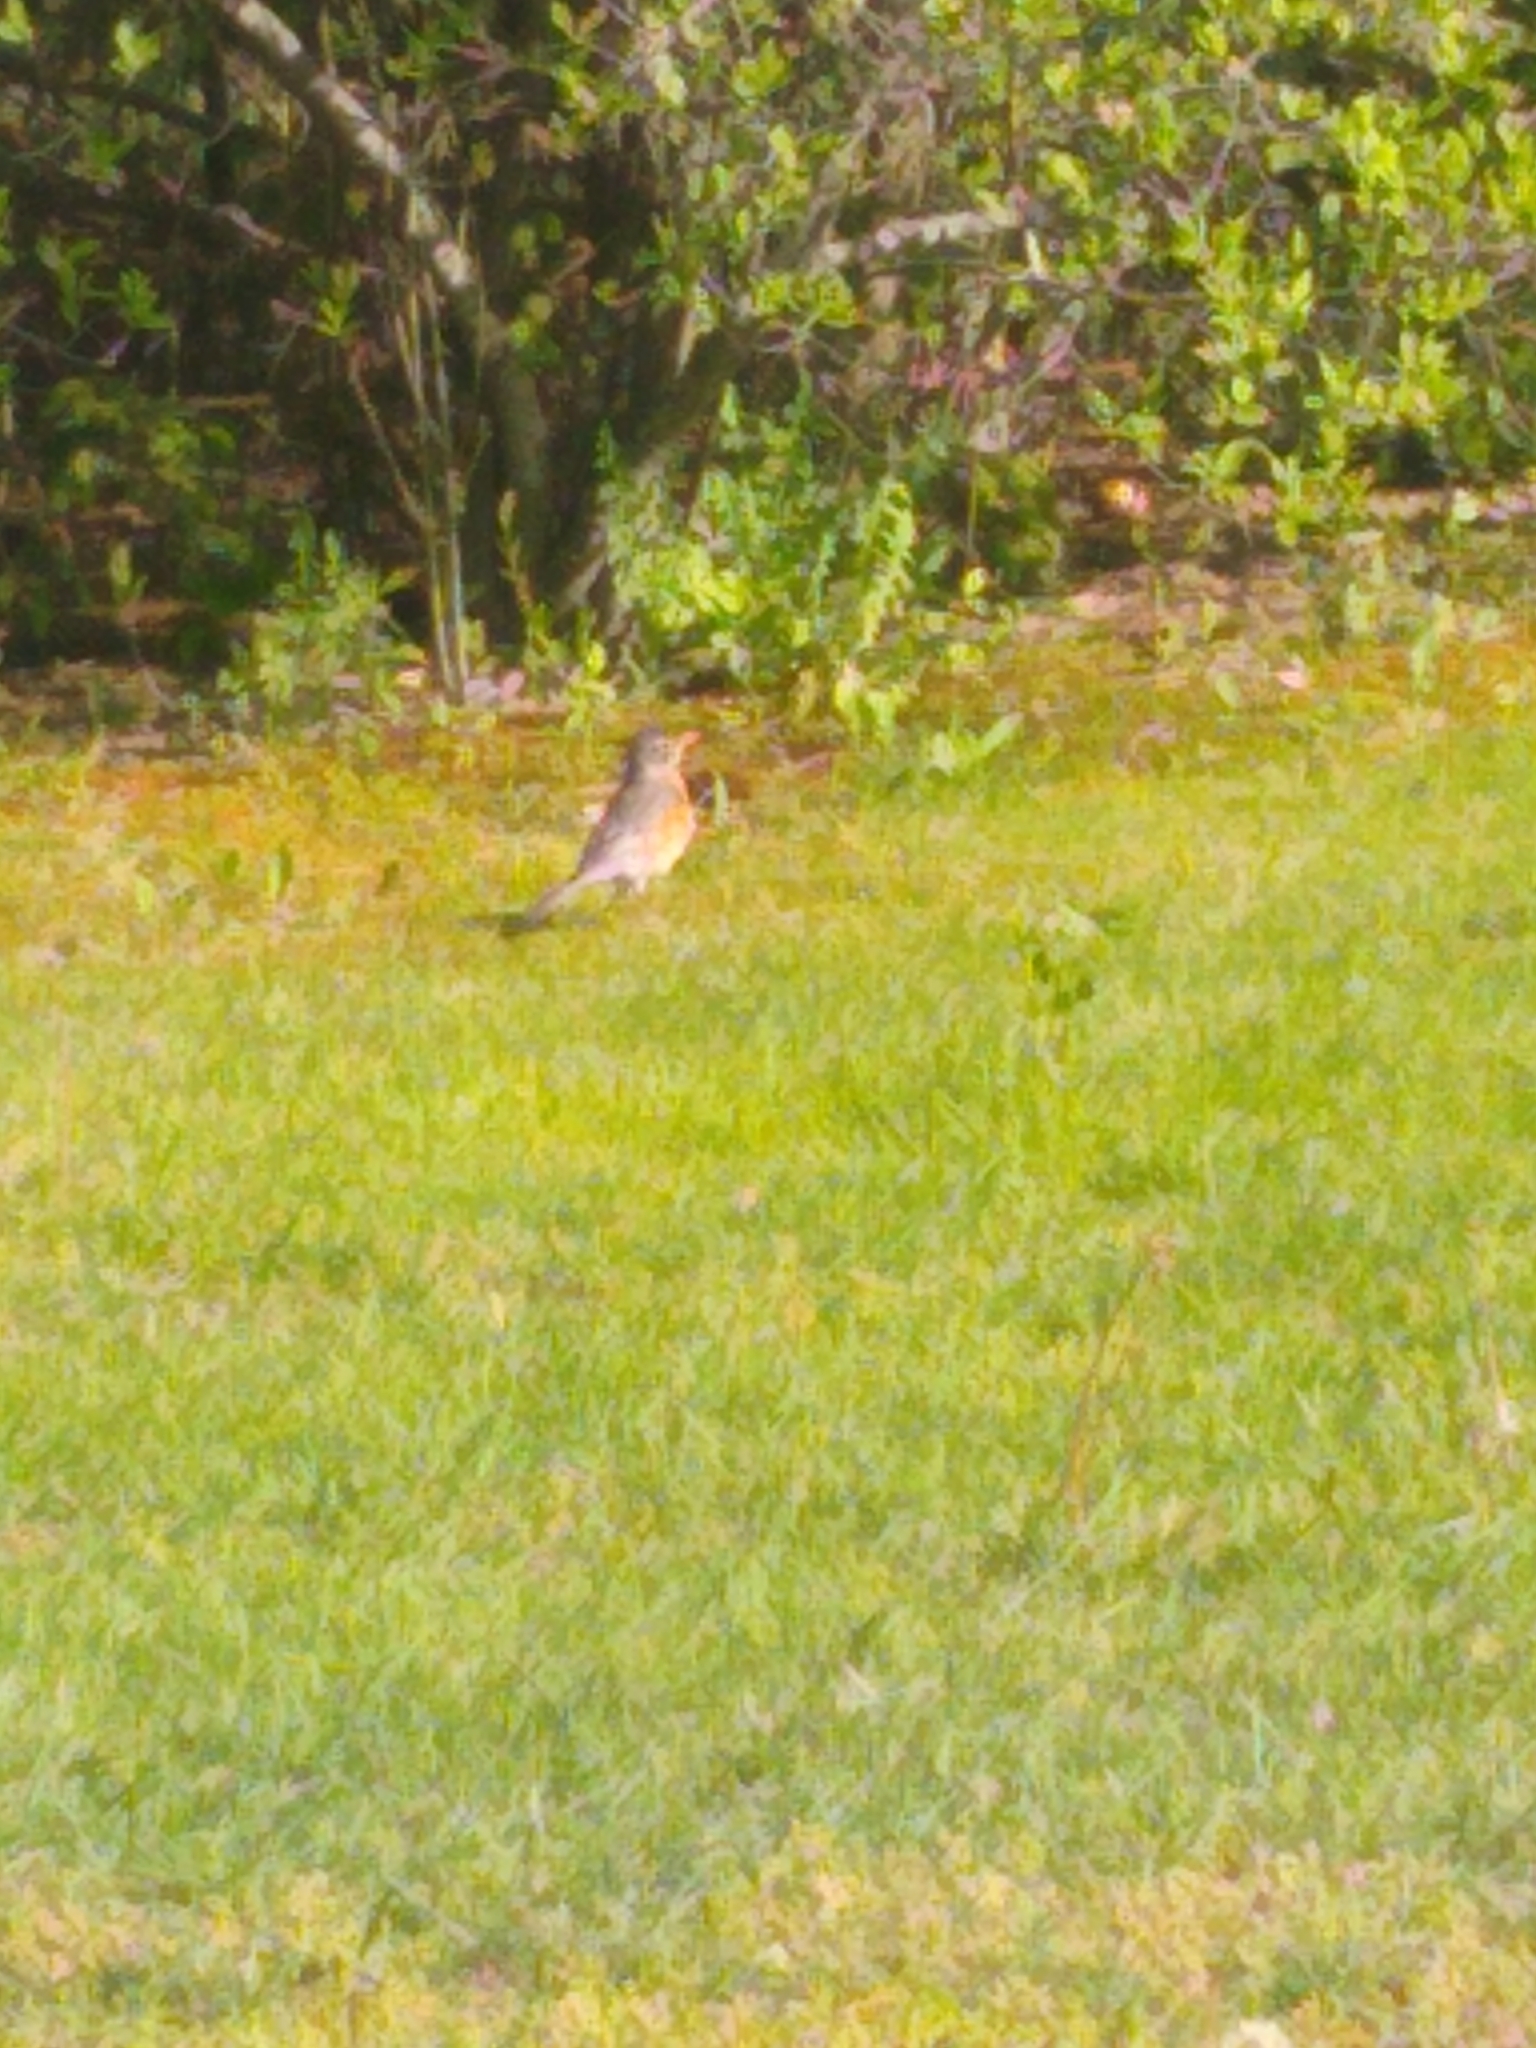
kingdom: Animalia
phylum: Chordata
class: Aves
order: Passeriformes
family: Turdidae
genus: Turdus
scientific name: Turdus migratorius
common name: American robin
